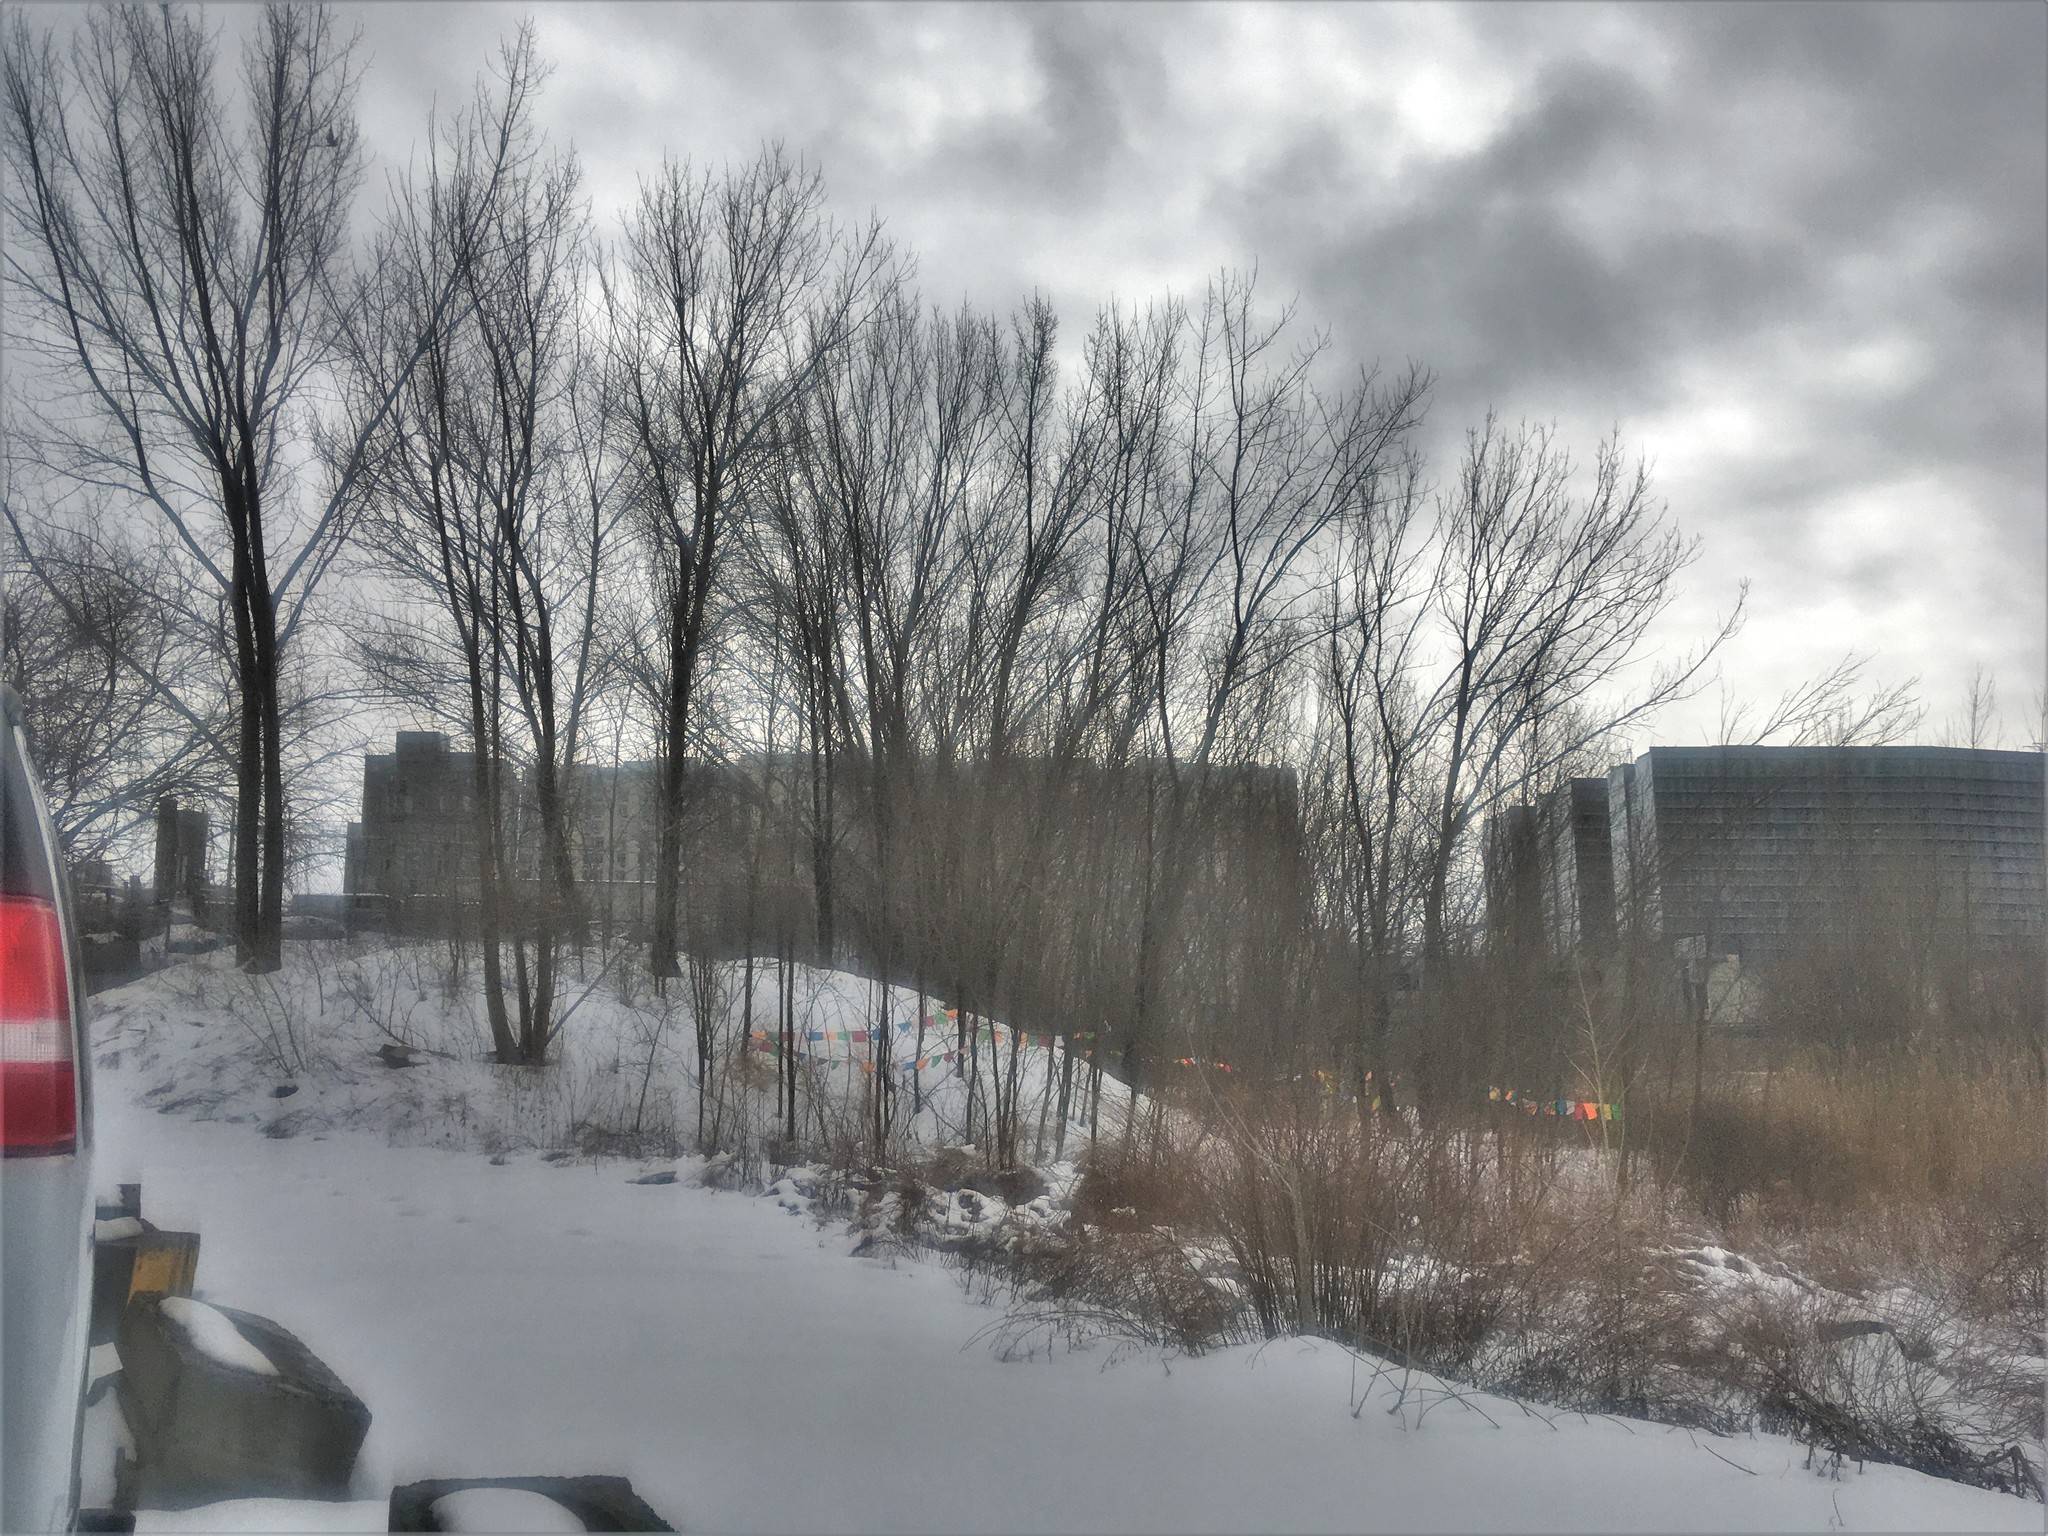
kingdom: Plantae
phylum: Tracheophyta
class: Magnoliopsida
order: Malpighiales
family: Salicaceae
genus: Populus
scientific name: Populus deltoides
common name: Eastern cottonwood
